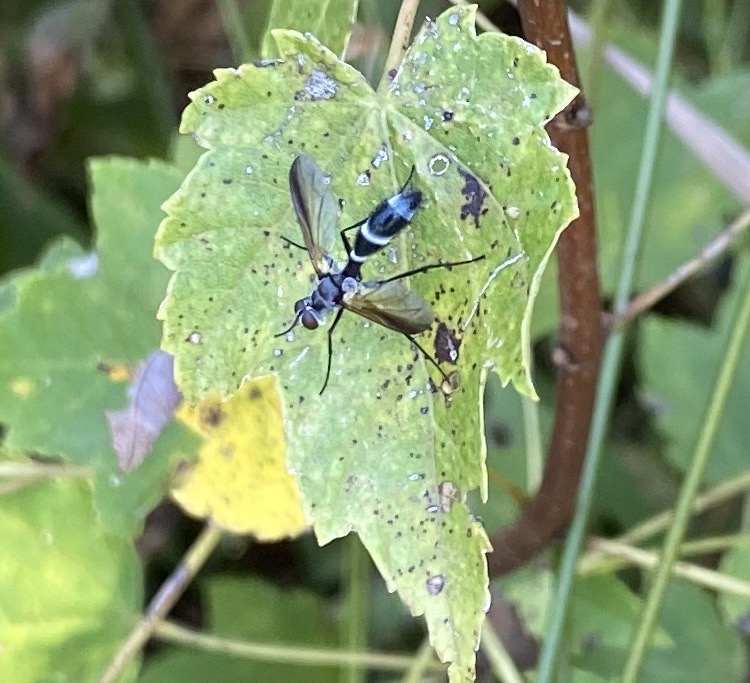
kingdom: Animalia
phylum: Arthropoda
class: Insecta
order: Diptera
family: Tachinidae
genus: Cordyligaster
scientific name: Cordyligaster septentrionalis
